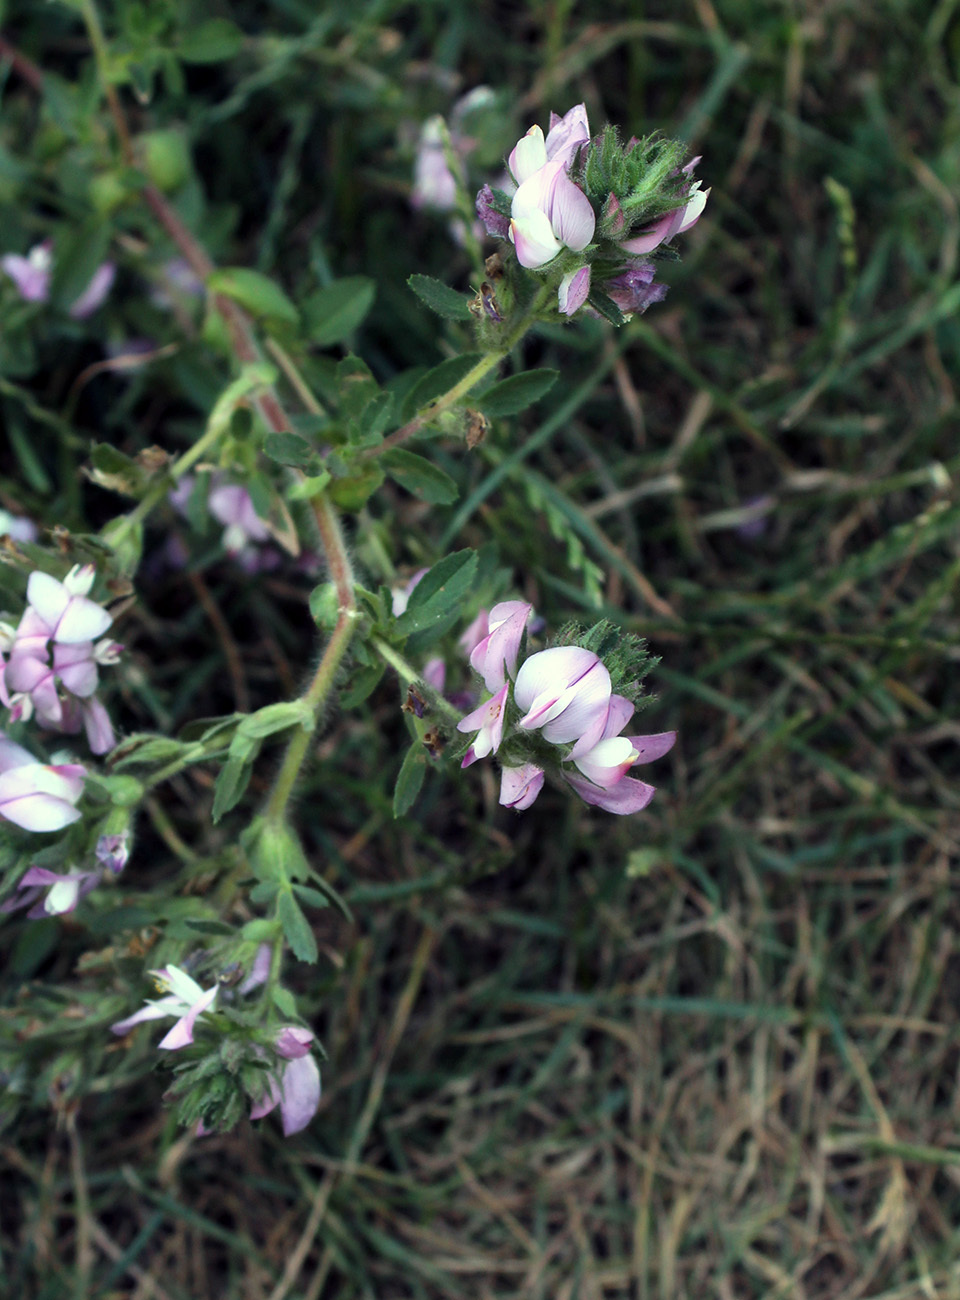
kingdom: Plantae
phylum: Tracheophyta
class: Magnoliopsida
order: Fabales
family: Fabaceae
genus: Ononis
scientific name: Ononis arvensis
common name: Field restharrow
